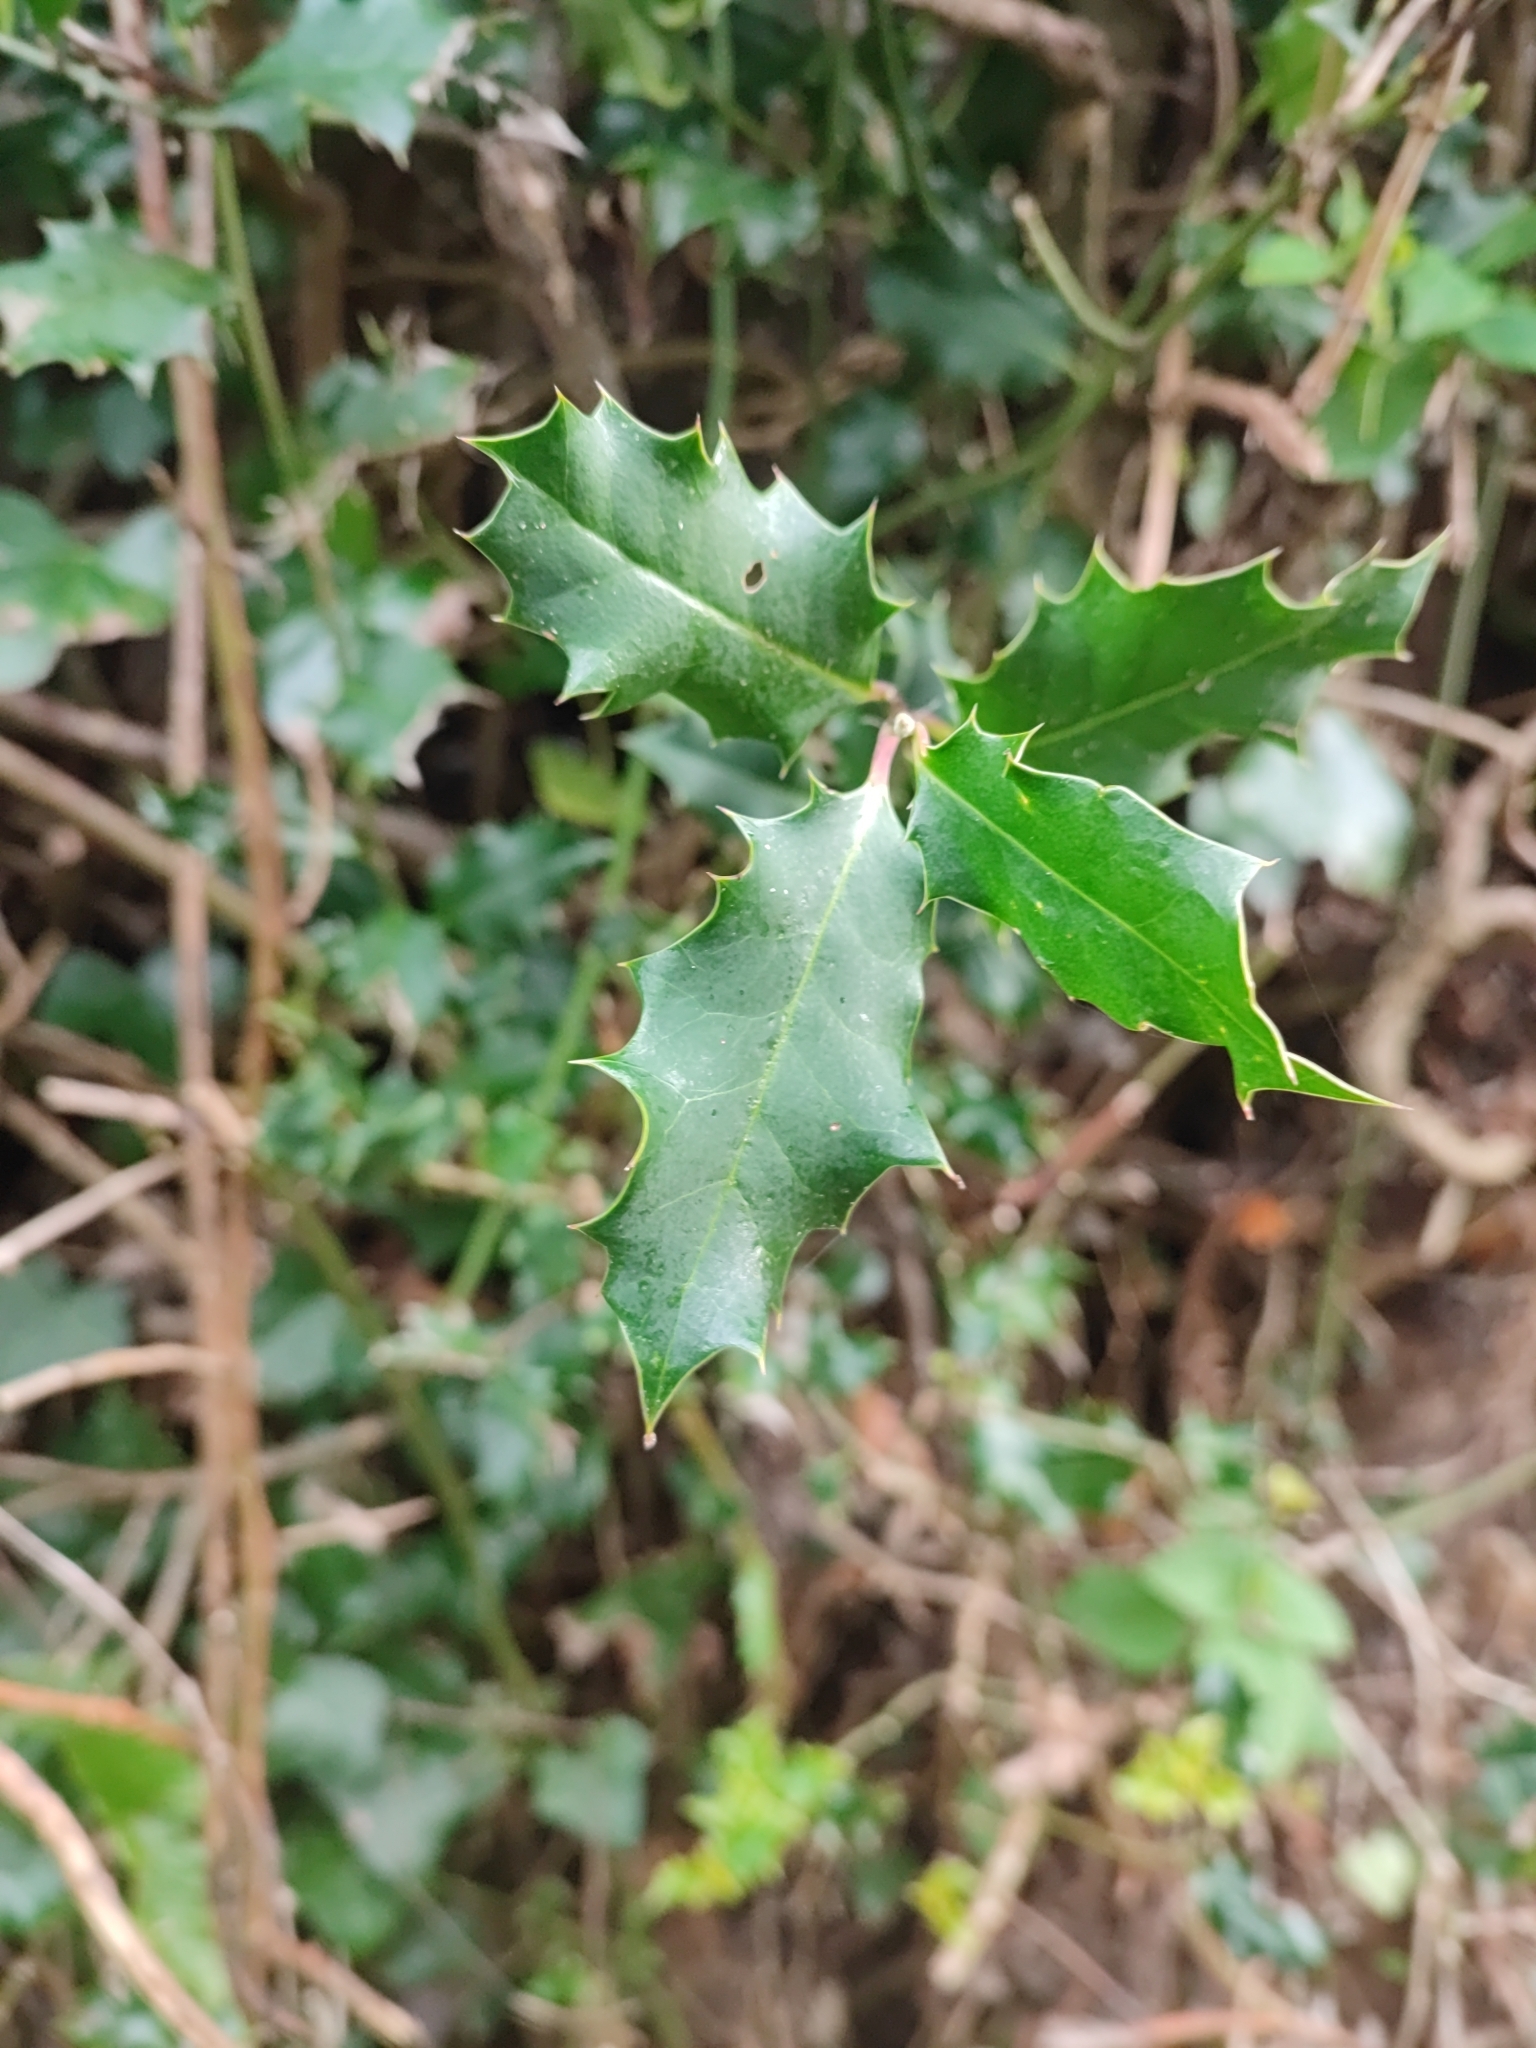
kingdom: Plantae
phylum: Tracheophyta
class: Magnoliopsida
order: Aquifoliales
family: Aquifoliaceae
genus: Ilex
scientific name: Ilex aquifolium
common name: English holly
